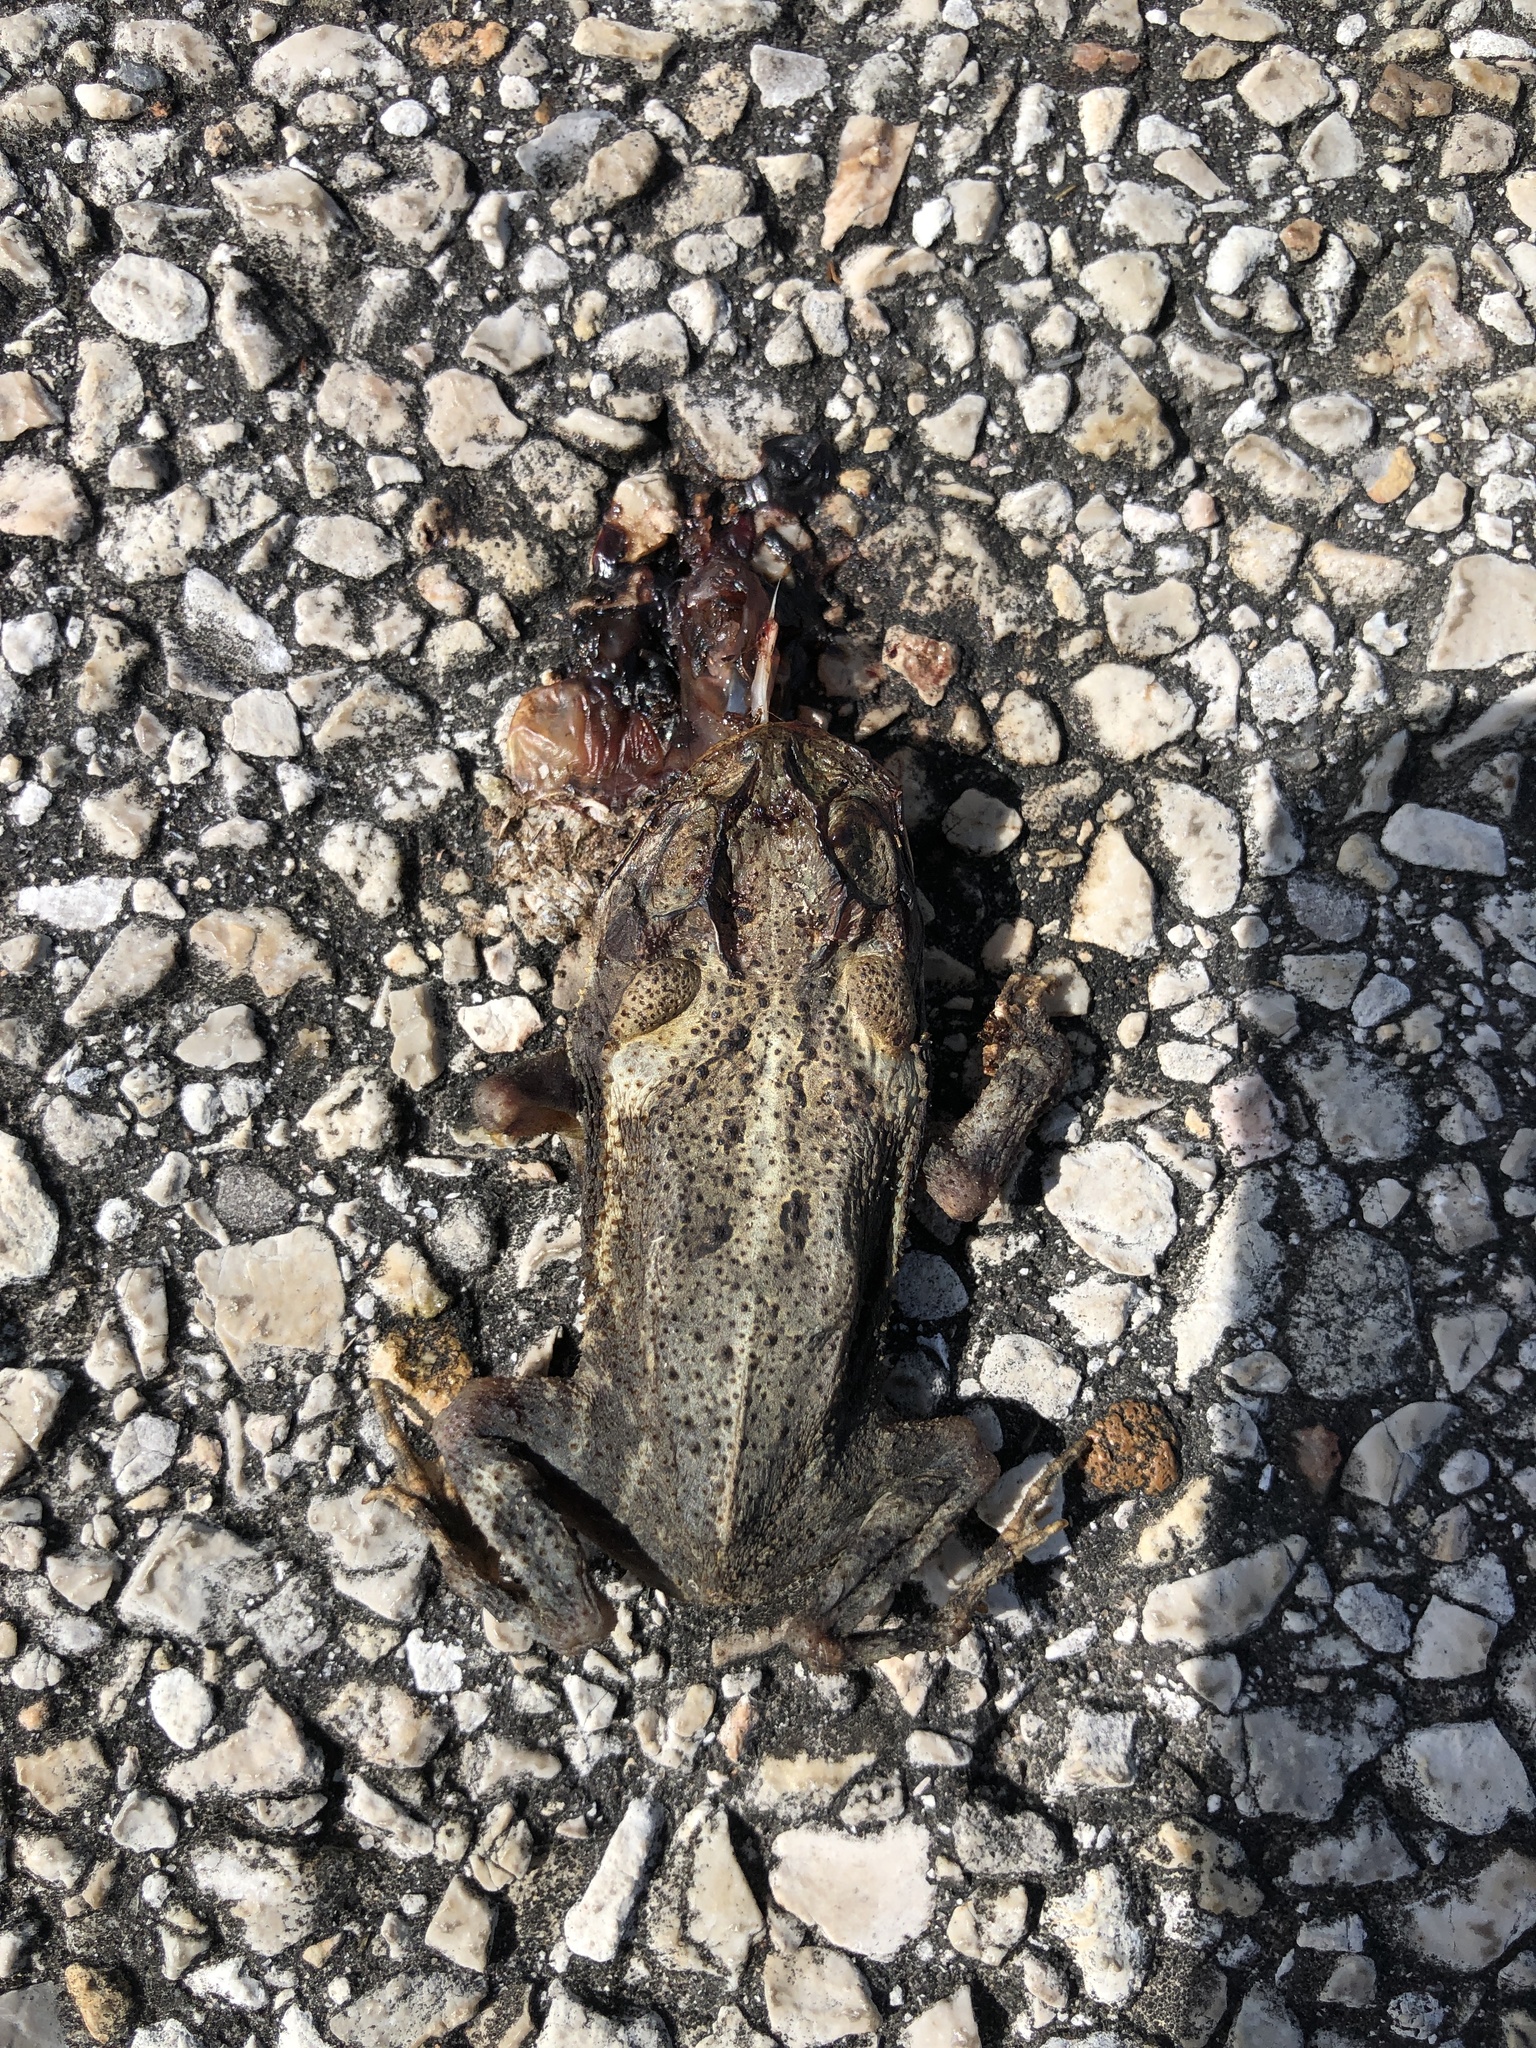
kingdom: Animalia
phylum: Chordata
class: Amphibia
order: Anura
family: Bufonidae
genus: Incilius
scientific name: Incilius nebulifer
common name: Gulf coast toad
